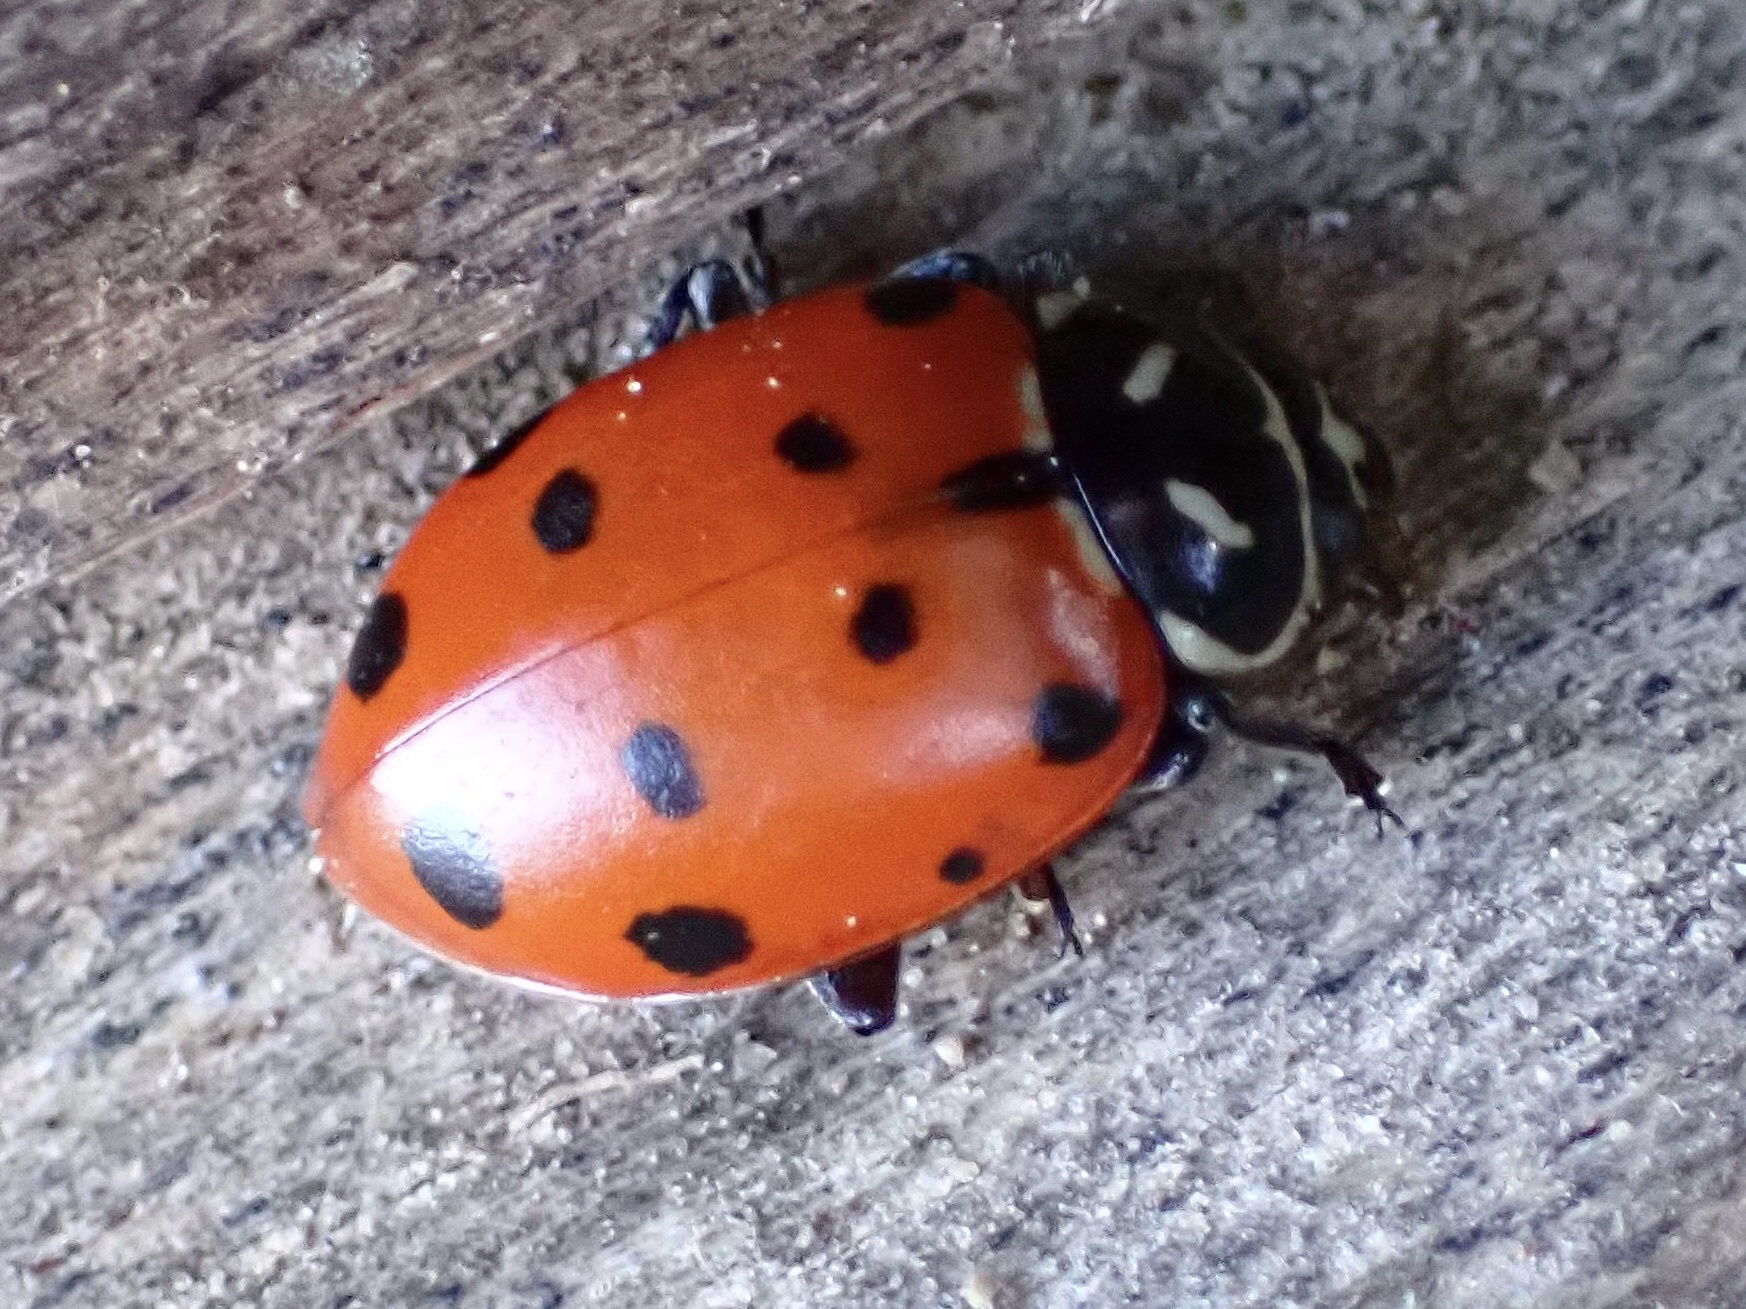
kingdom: Animalia
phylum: Arthropoda
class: Insecta
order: Coleoptera
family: Coccinellidae
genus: Hippodamia
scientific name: Hippodamia convergens
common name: Convergent lady beetle
